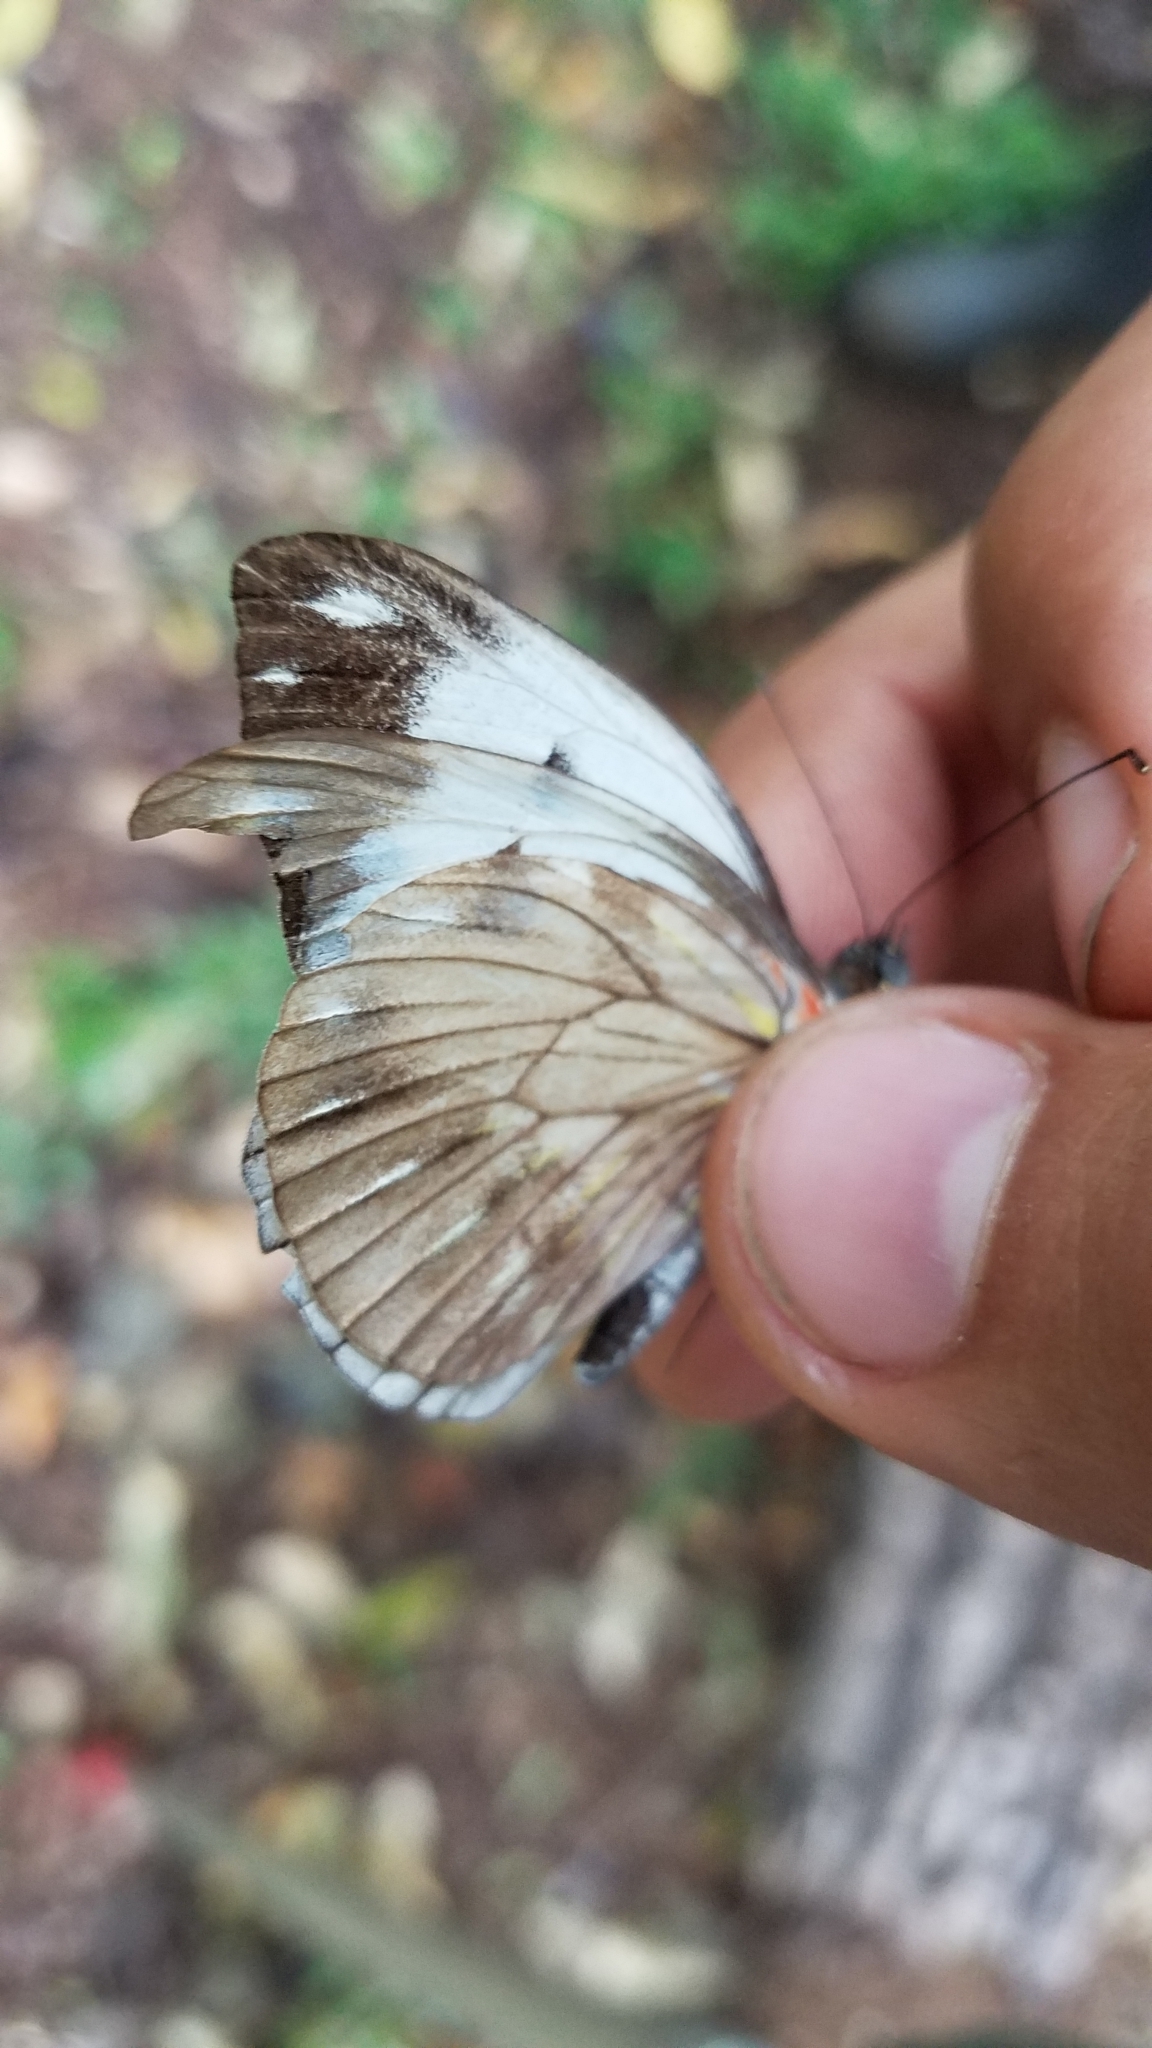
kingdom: Animalia
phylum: Arthropoda
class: Insecta
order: Lepidoptera
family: Pieridae
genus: Pieriballia
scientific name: Pieriballia viardi
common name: Painted white
